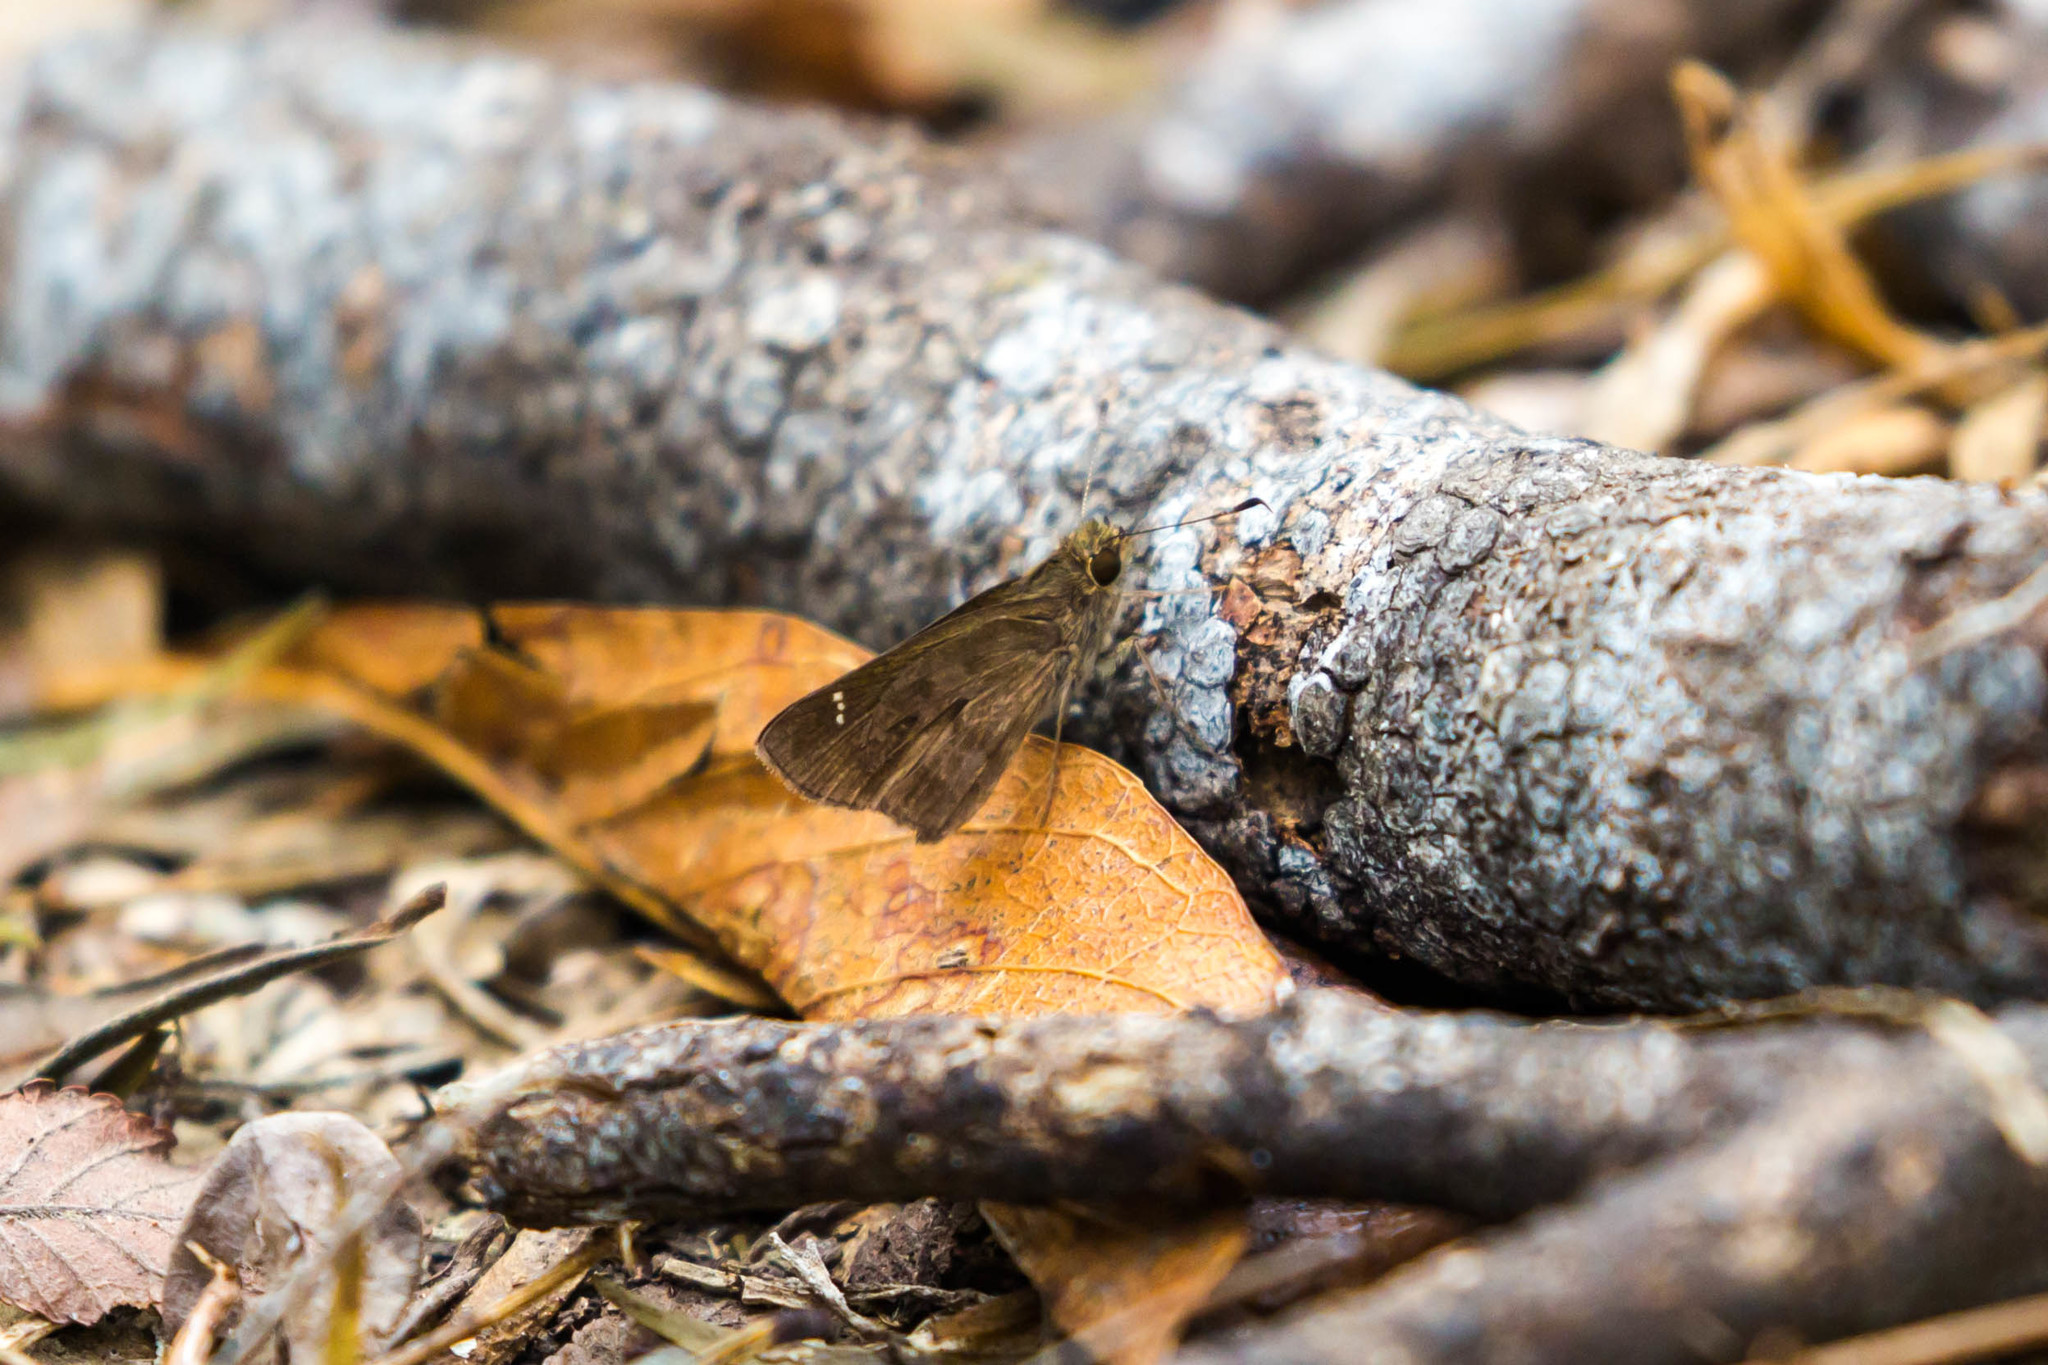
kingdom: Animalia
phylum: Arthropoda
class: Insecta
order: Lepidoptera
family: Hesperiidae
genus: Lerema
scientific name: Lerema accius
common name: Clouded skipper
